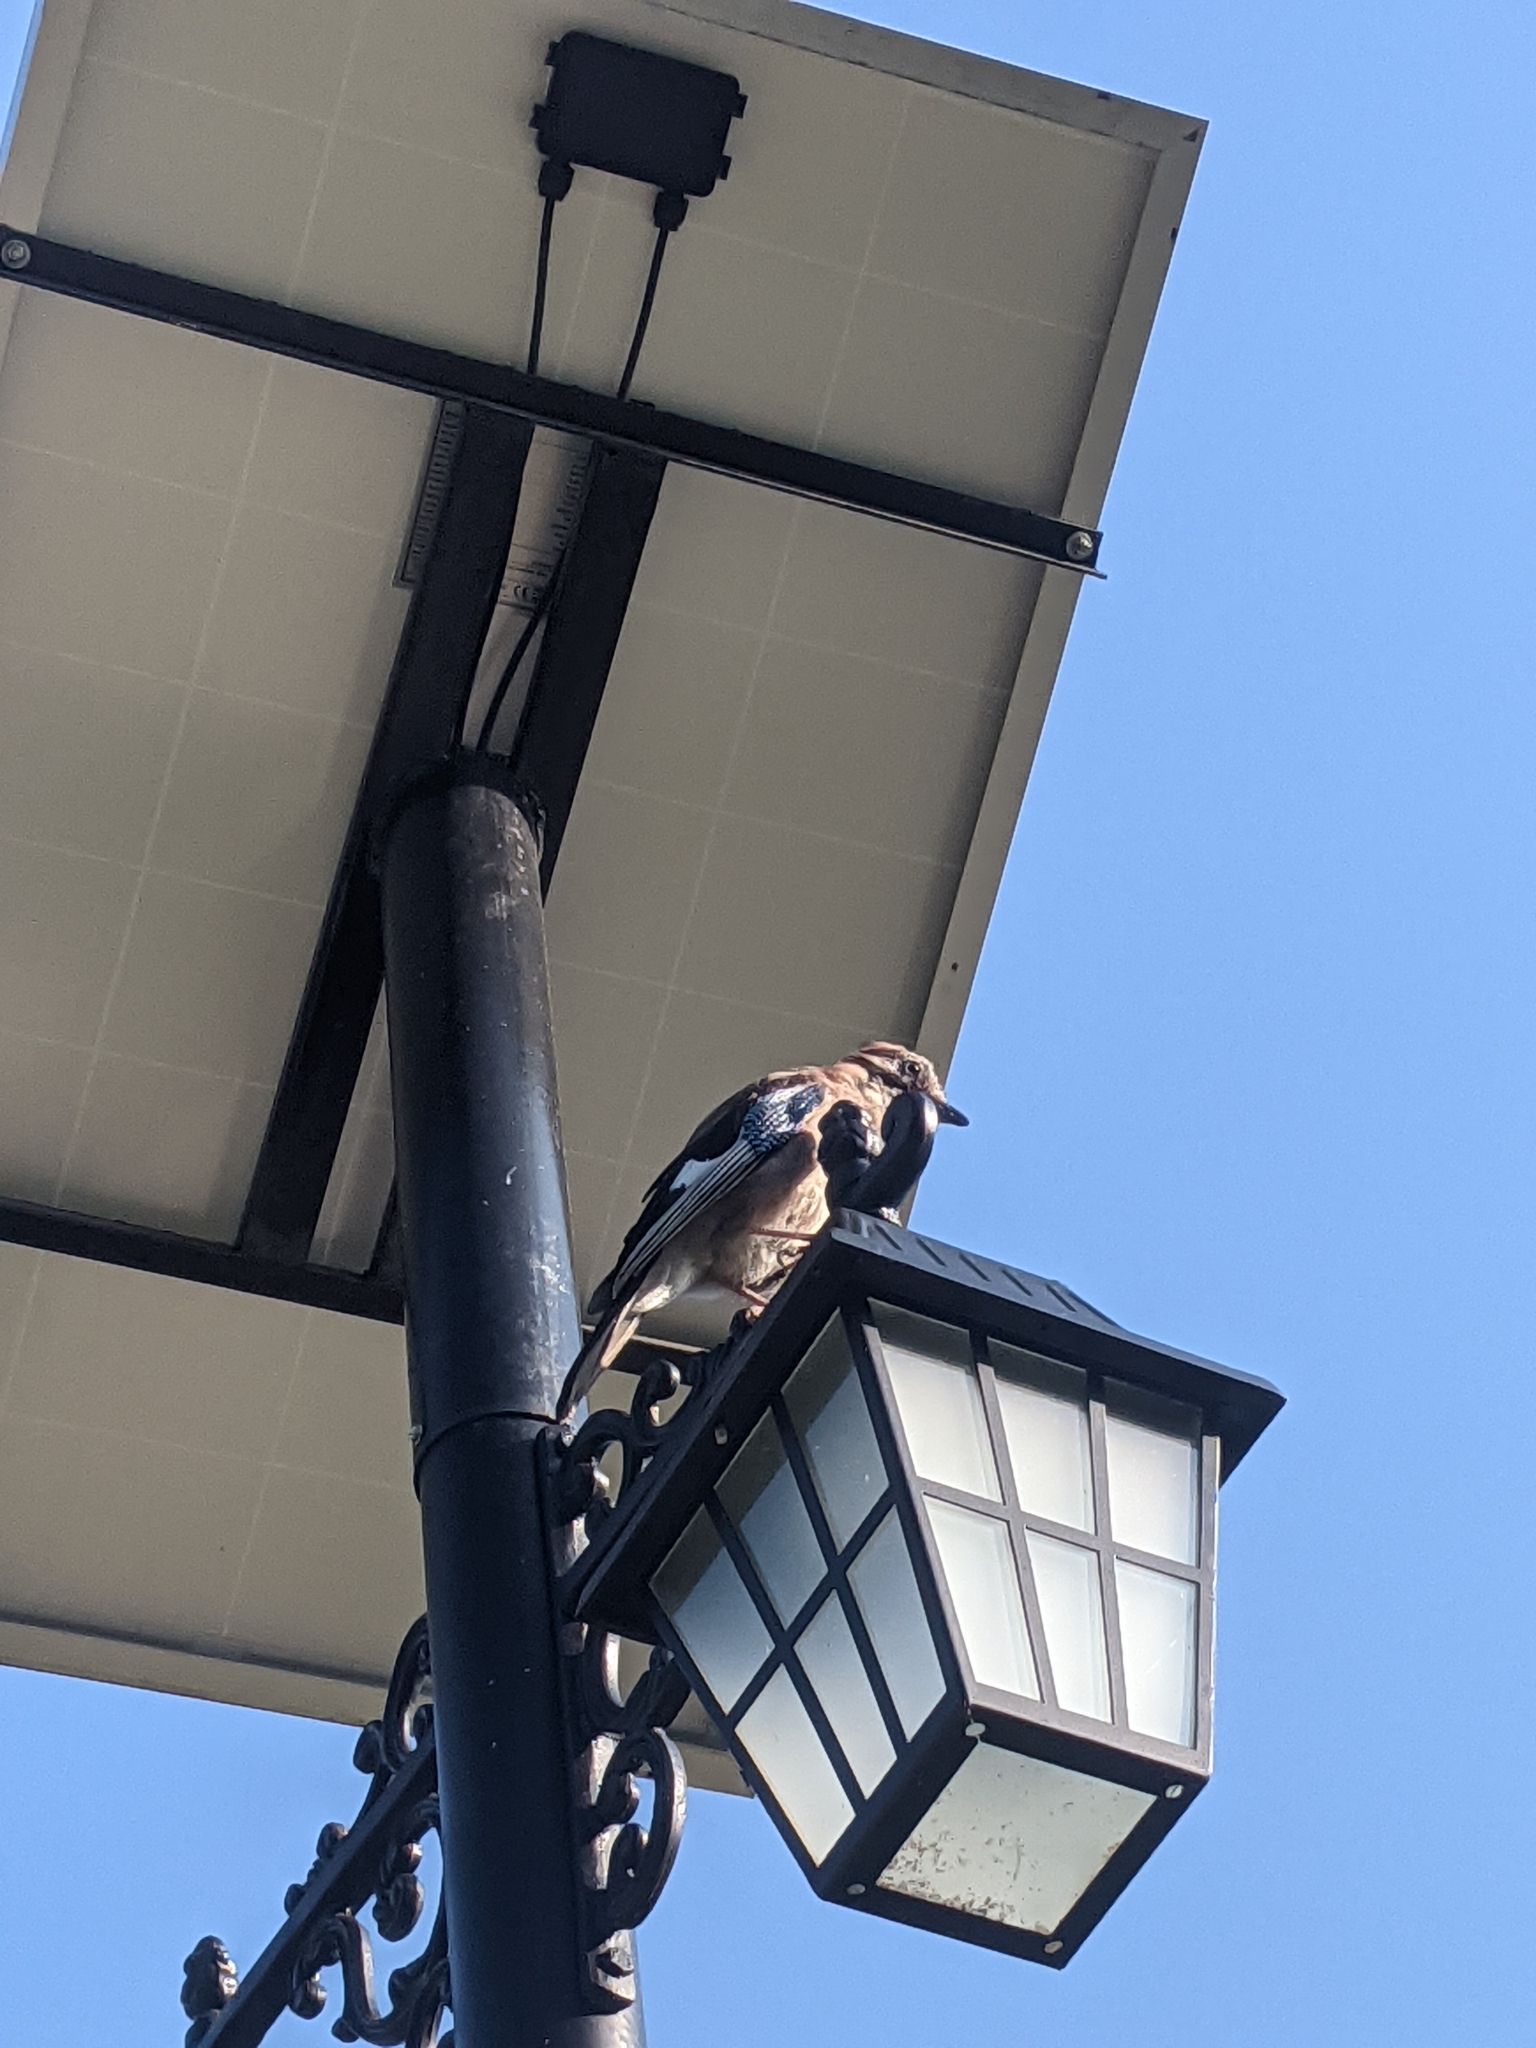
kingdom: Animalia
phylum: Chordata
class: Aves
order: Passeriformes
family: Corvidae
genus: Garrulus
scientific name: Garrulus glandarius
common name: Eurasian jay
